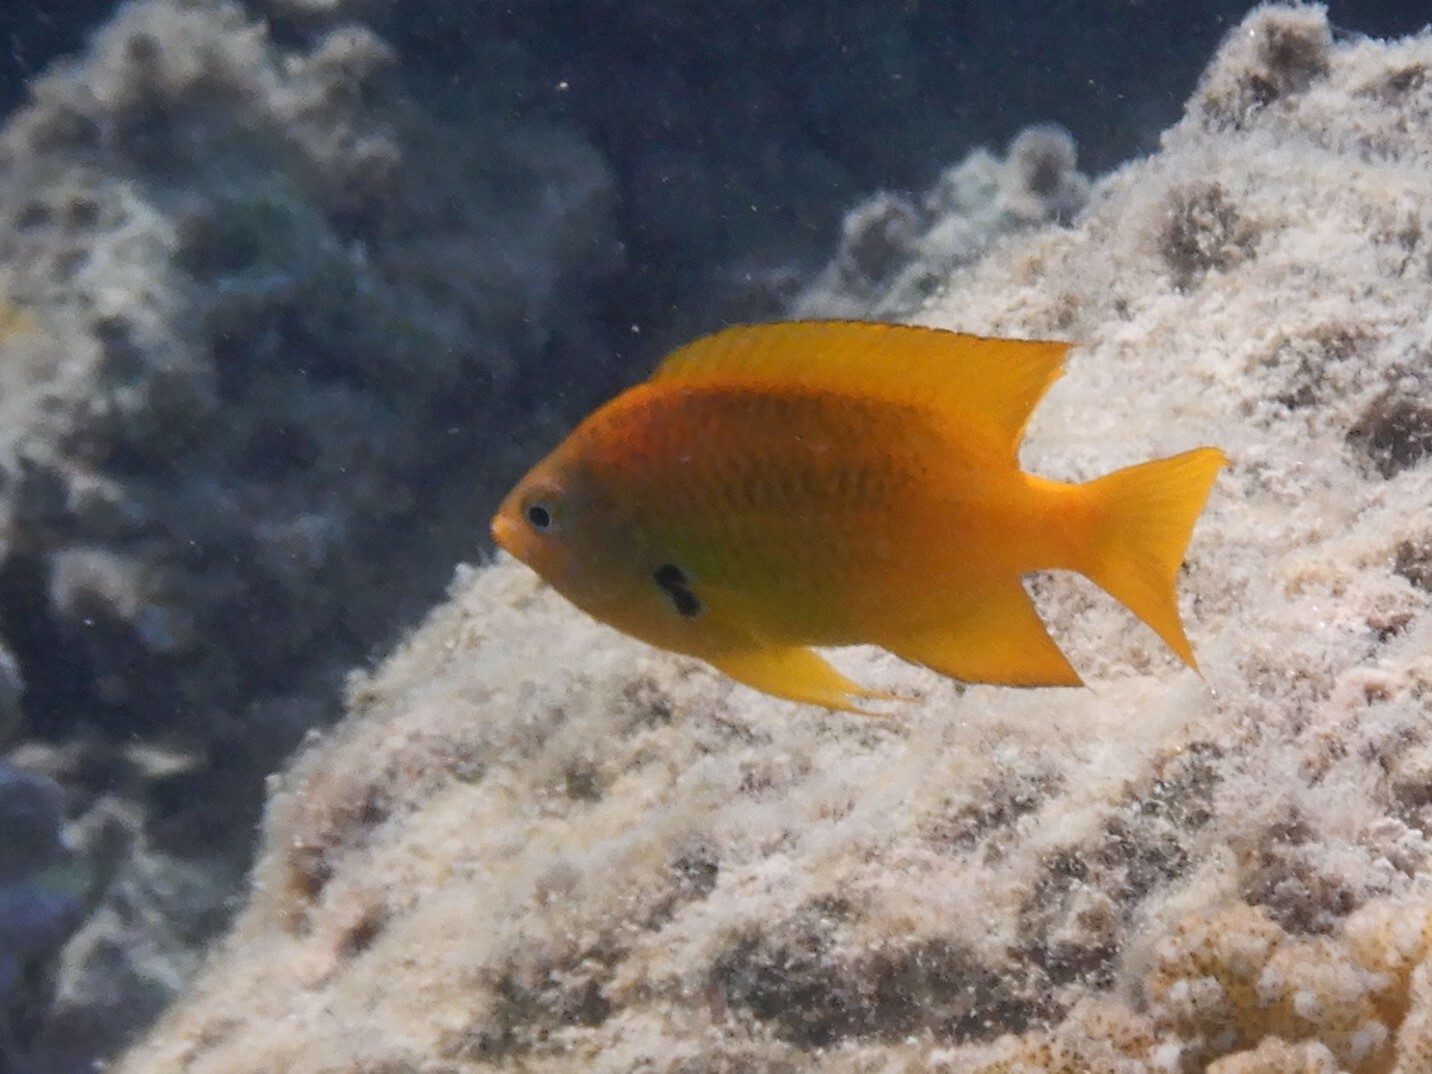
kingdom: Animalia
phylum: Chordata
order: Perciformes
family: Pomacentridae
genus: Pomacentrus
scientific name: Pomacentrus sulfureus
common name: Sulfur damsel
